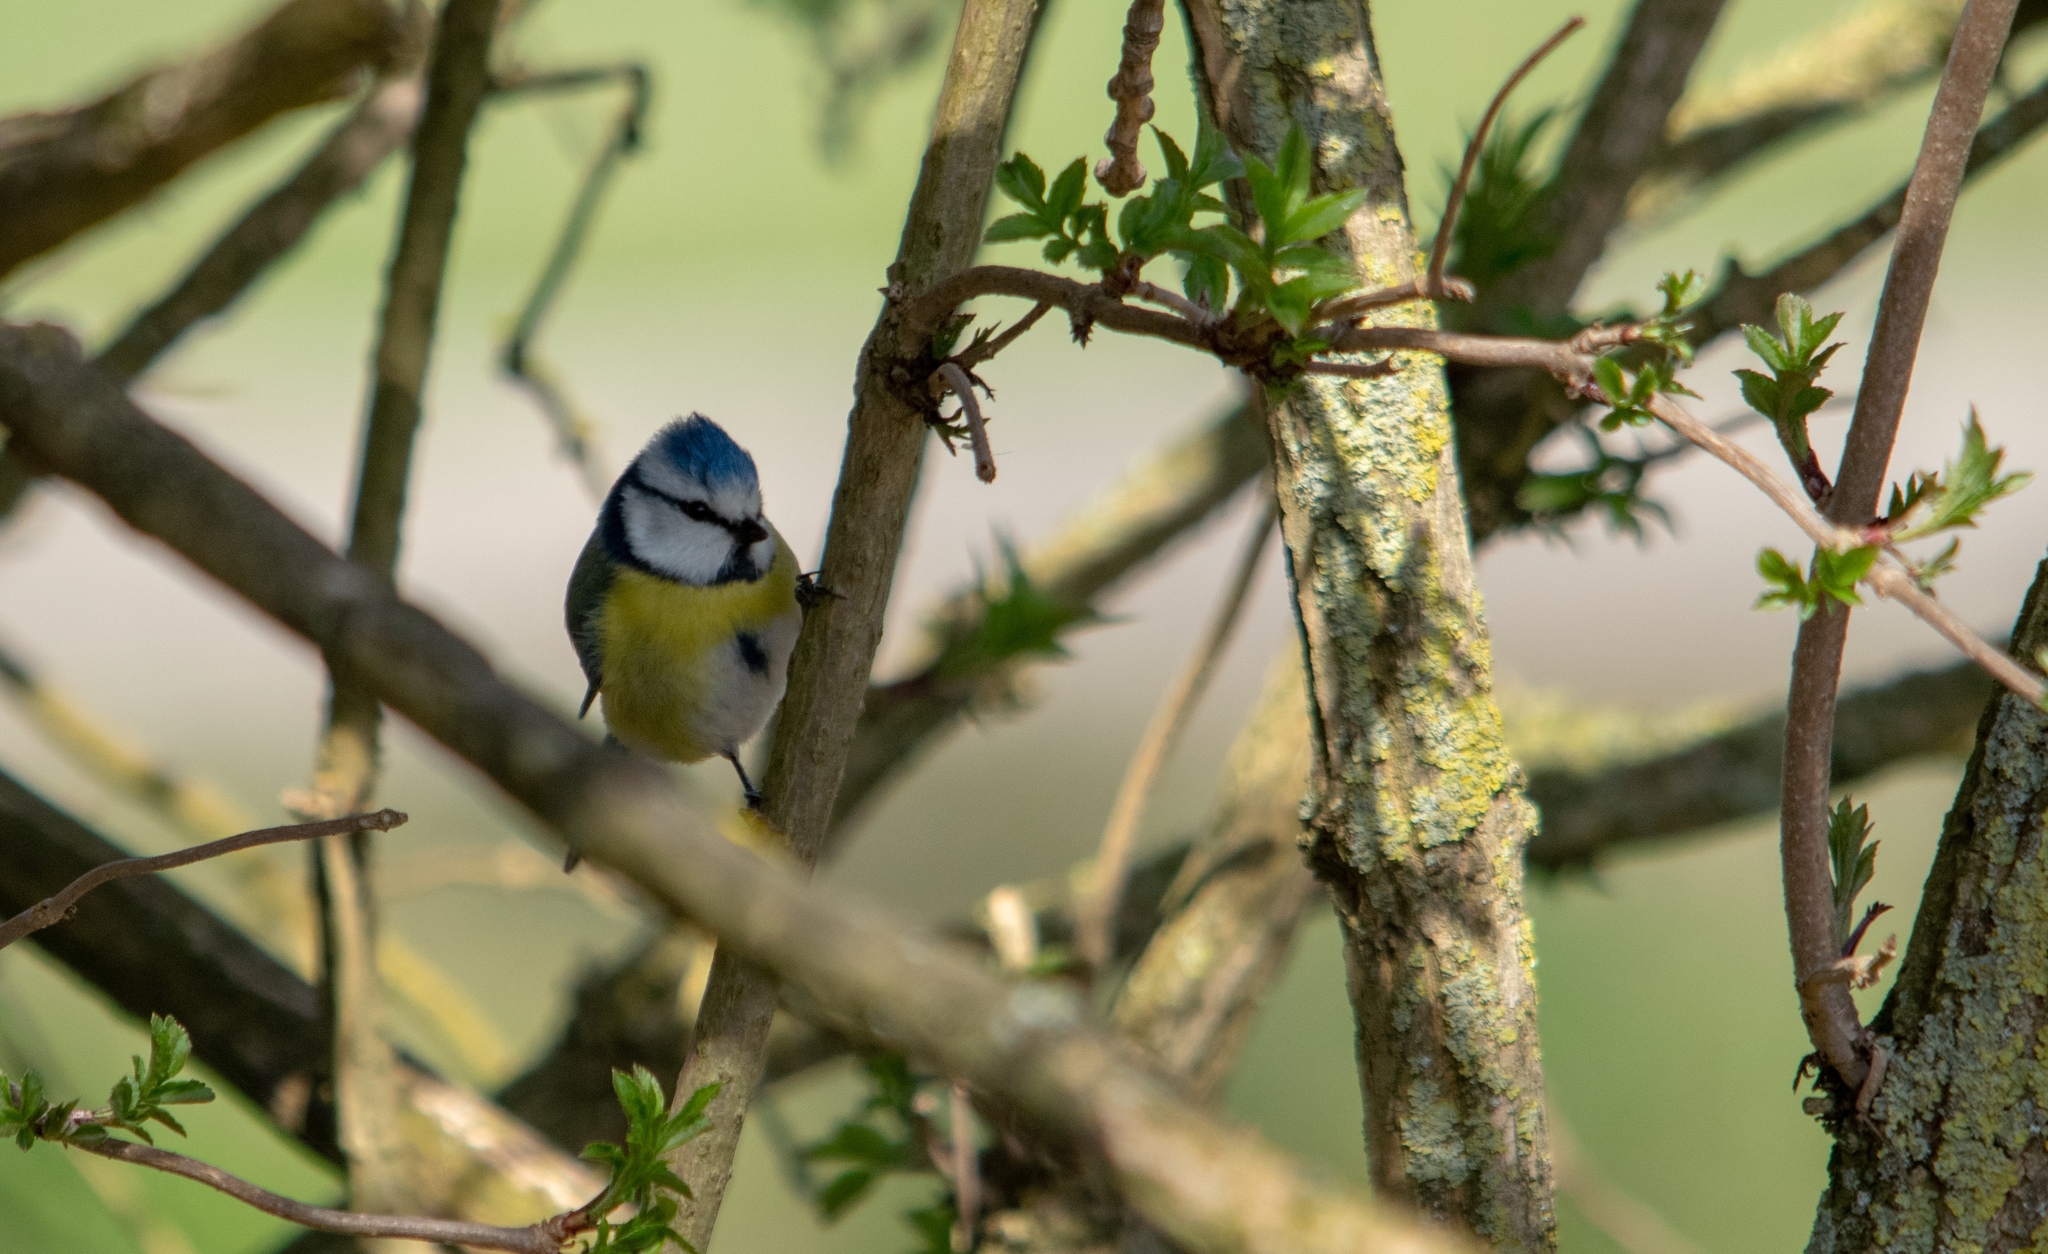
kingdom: Animalia
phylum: Chordata
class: Aves
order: Passeriformes
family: Paridae
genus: Cyanistes
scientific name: Cyanistes caeruleus
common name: Eurasian blue tit
